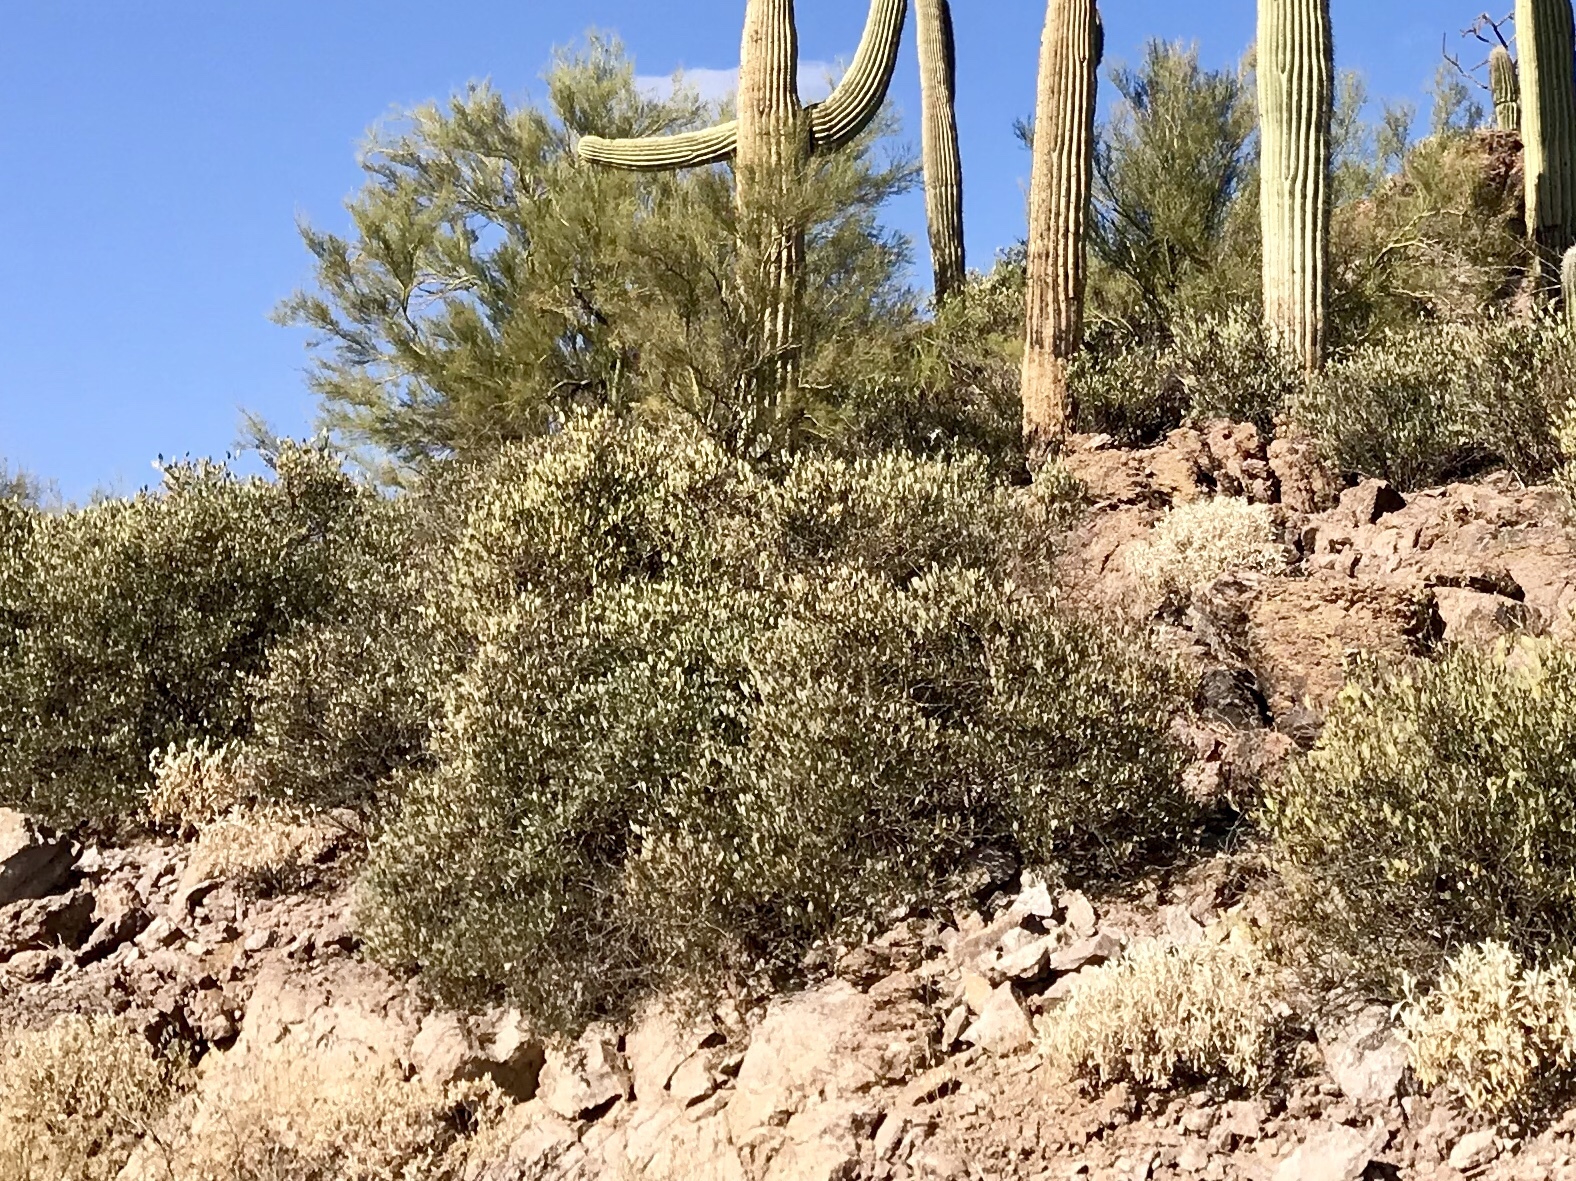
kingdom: Plantae
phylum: Tracheophyta
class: Magnoliopsida
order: Caryophyllales
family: Simmondsiaceae
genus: Simmondsia
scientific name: Simmondsia chinensis
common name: Jojoba
